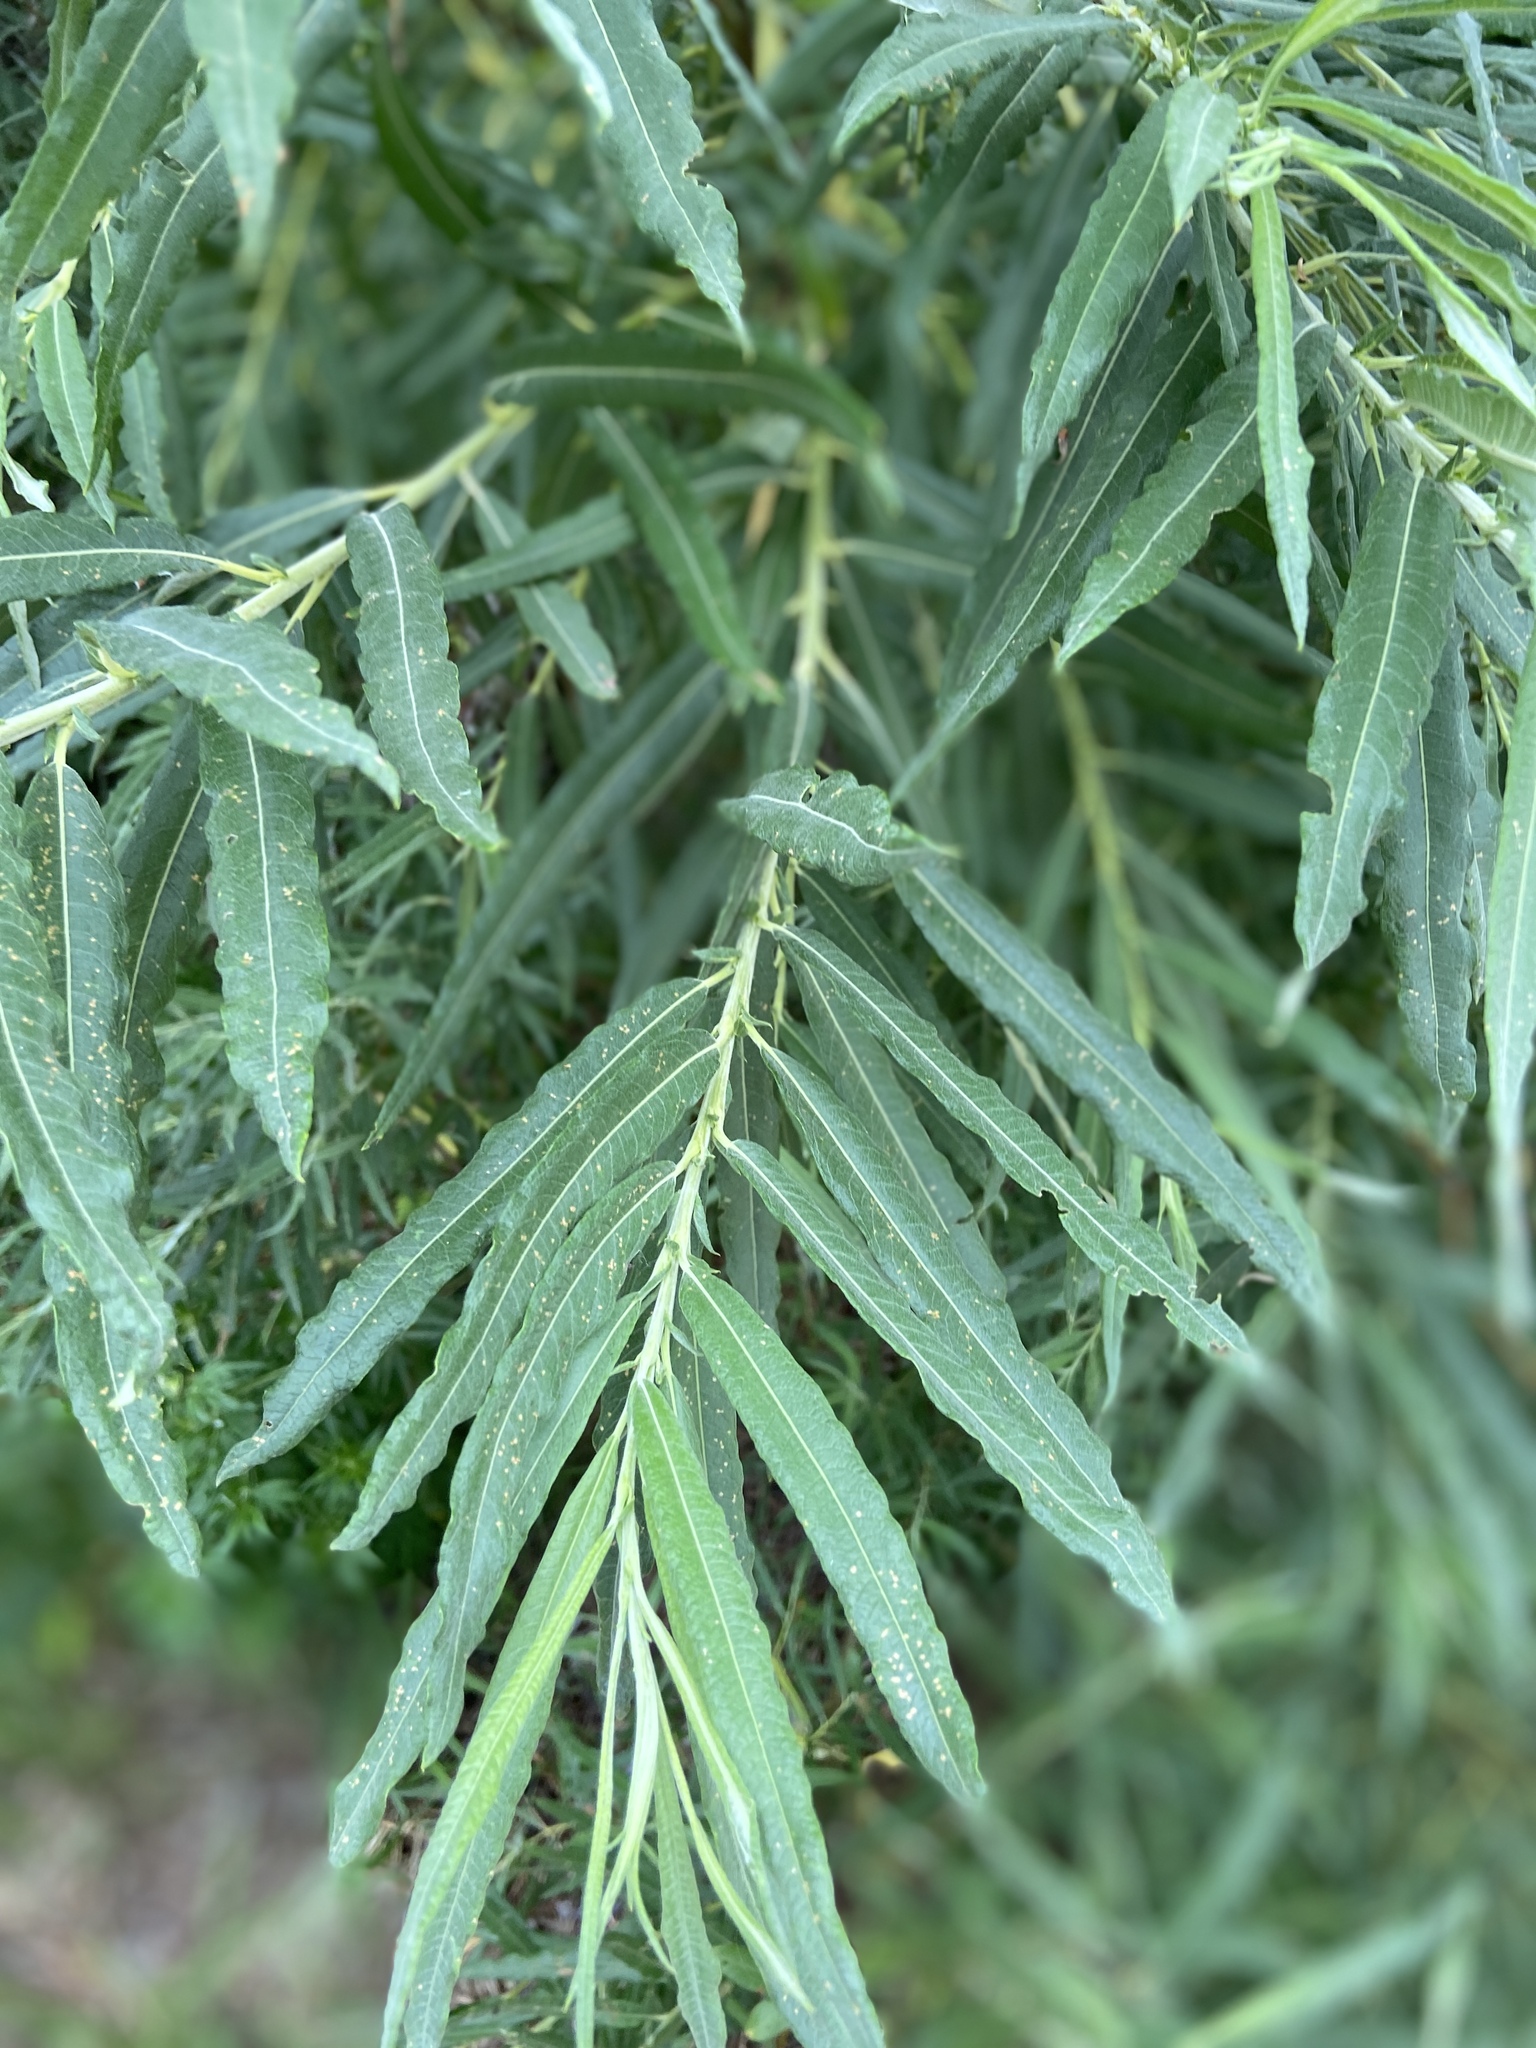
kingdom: Plantae
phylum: Tracheophyta
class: Magnoliopsida
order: Malpighiales
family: Salicaceae
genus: Salix
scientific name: Salix viminalis
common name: Osier
